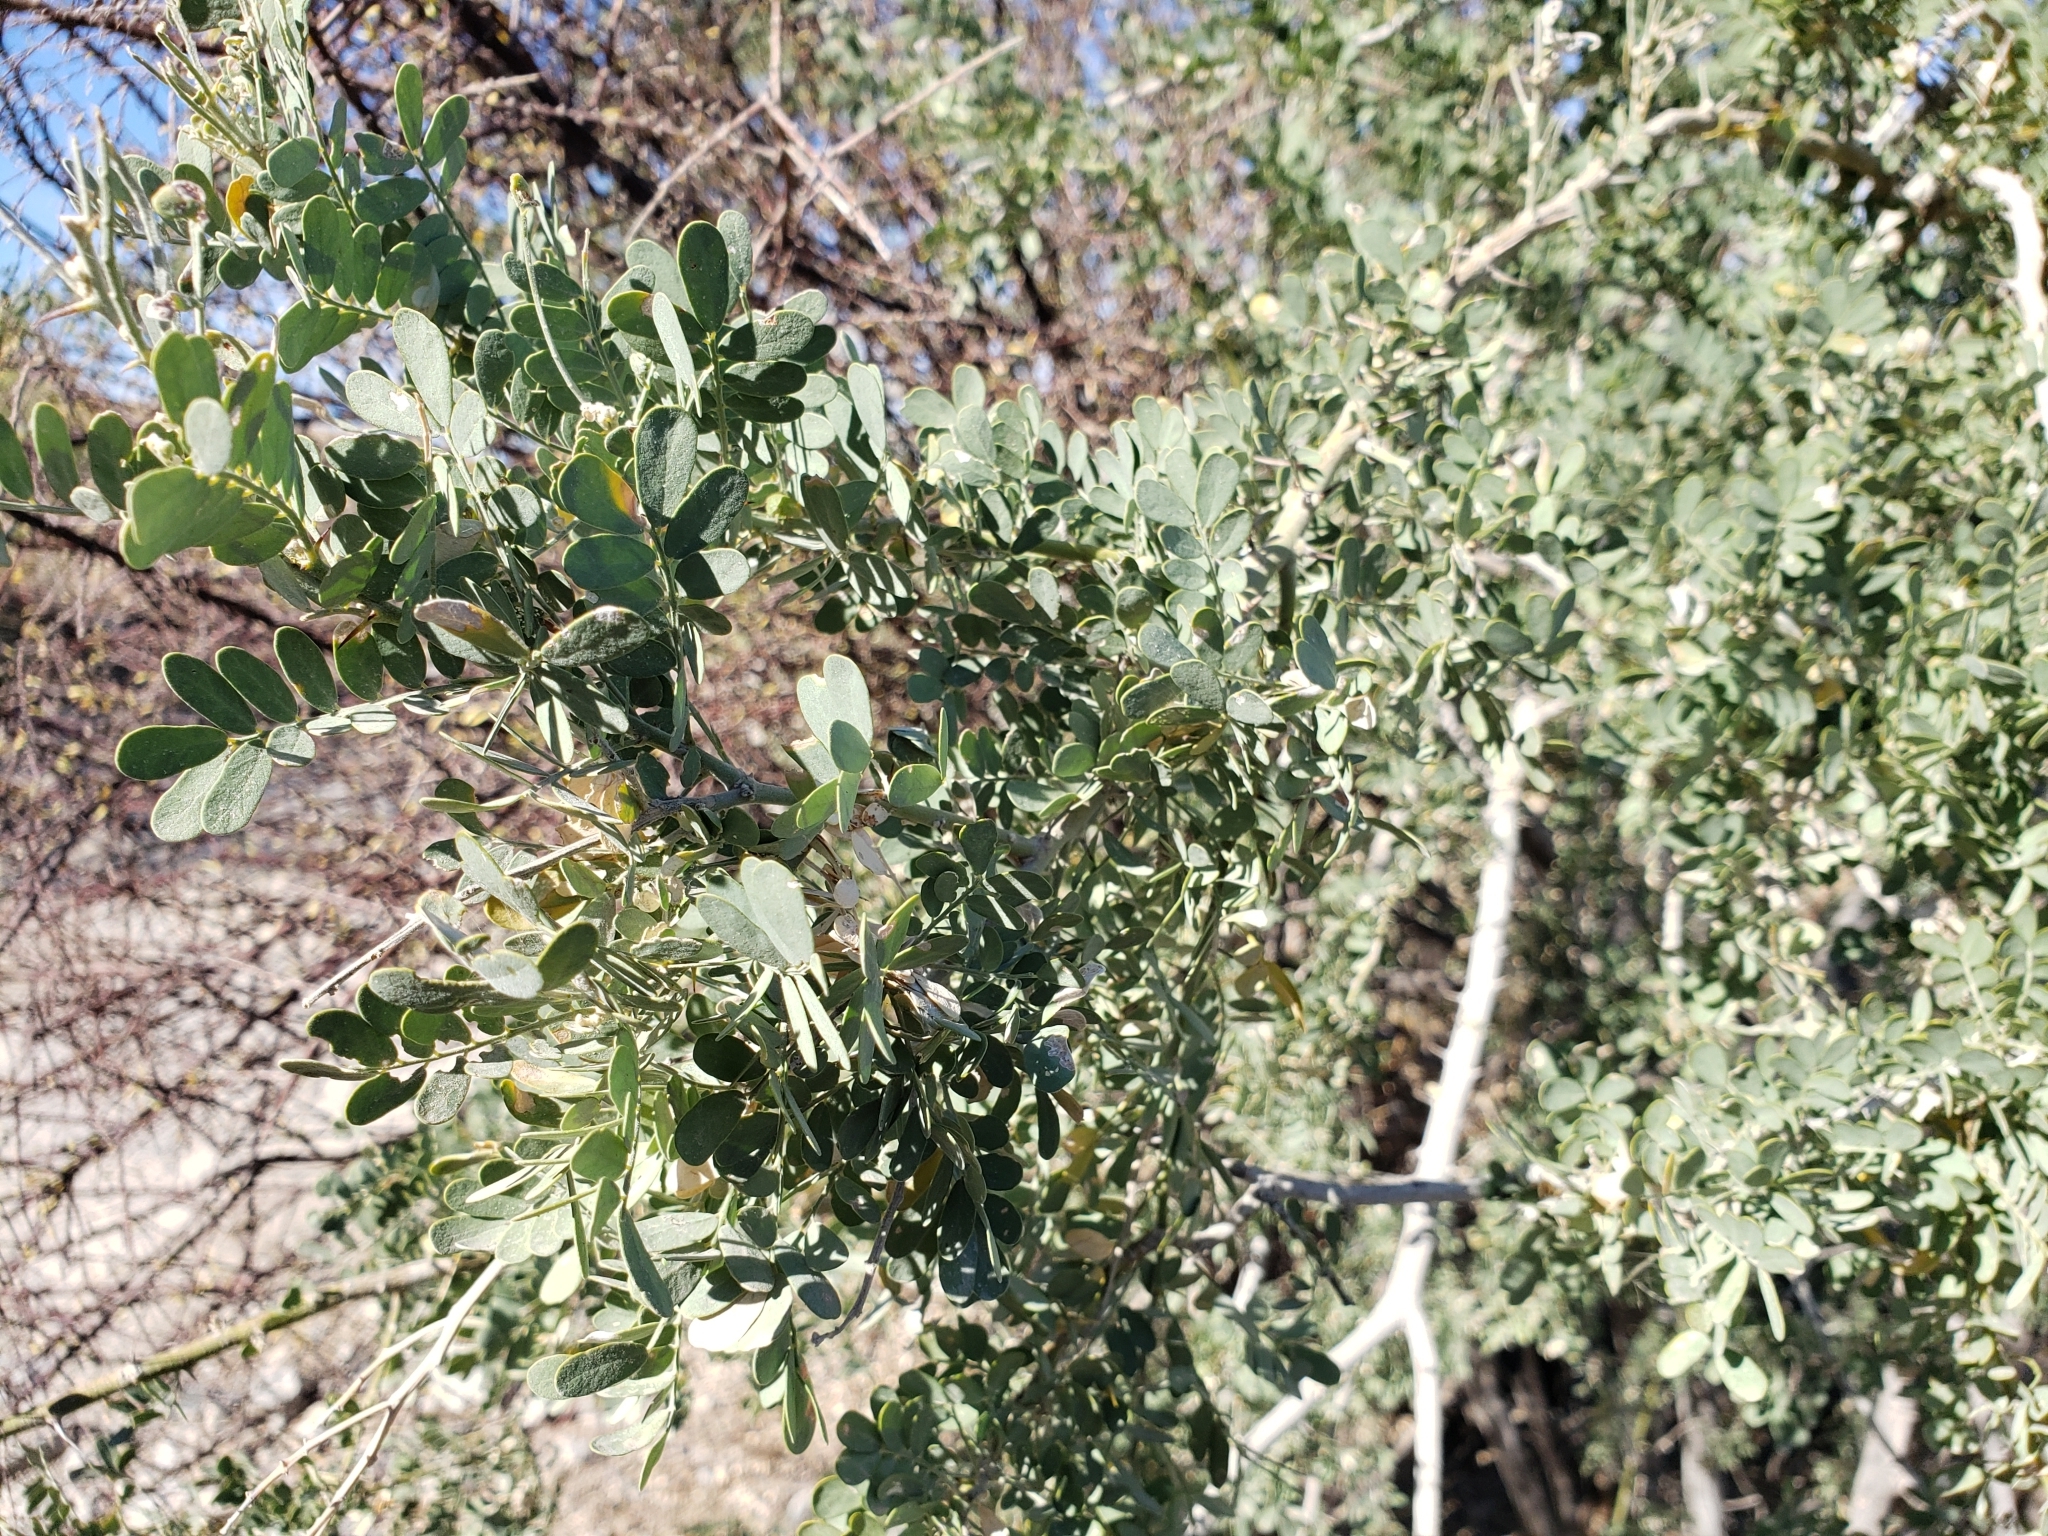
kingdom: Plantae
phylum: Tracheophyta
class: Magnoliopsida
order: Fabales
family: Fabaceae
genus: Olneya
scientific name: Olneya tesota
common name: Desert ironwood
